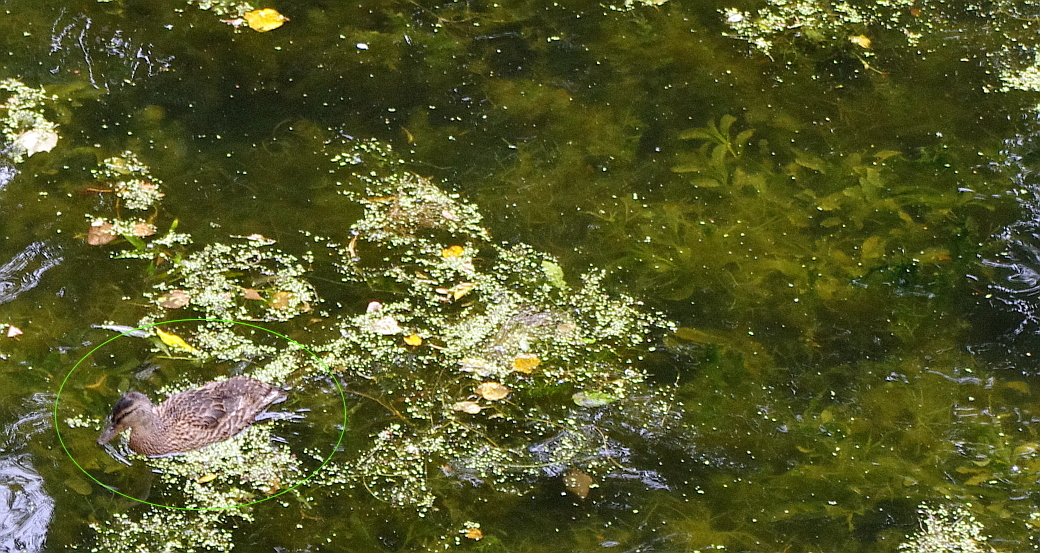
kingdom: Animalia
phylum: Chordata
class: Aves
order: Anseriformes
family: Anatidae
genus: Anas
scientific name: Anas platyrhynchos
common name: Mallard
